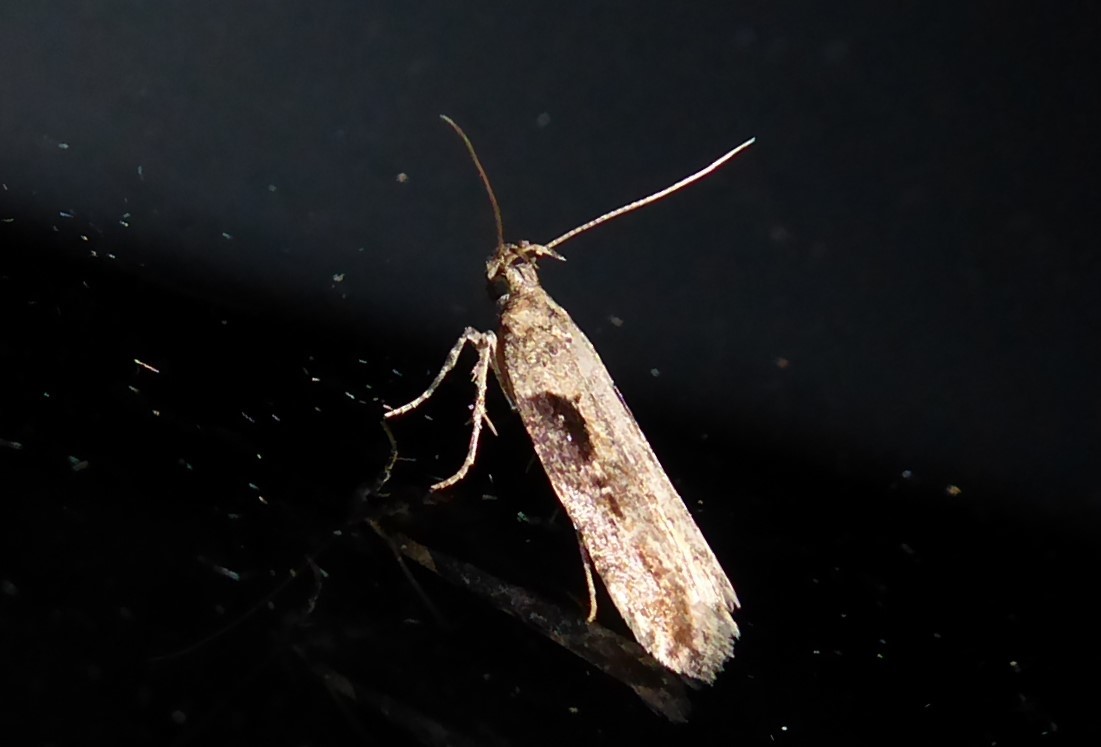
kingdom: Animalia
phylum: Arthropoda
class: Insecta
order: Lepidoptera
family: Gelechiidae
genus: Symmetrischema
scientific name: Symmetrischema tangolias
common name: Moth
